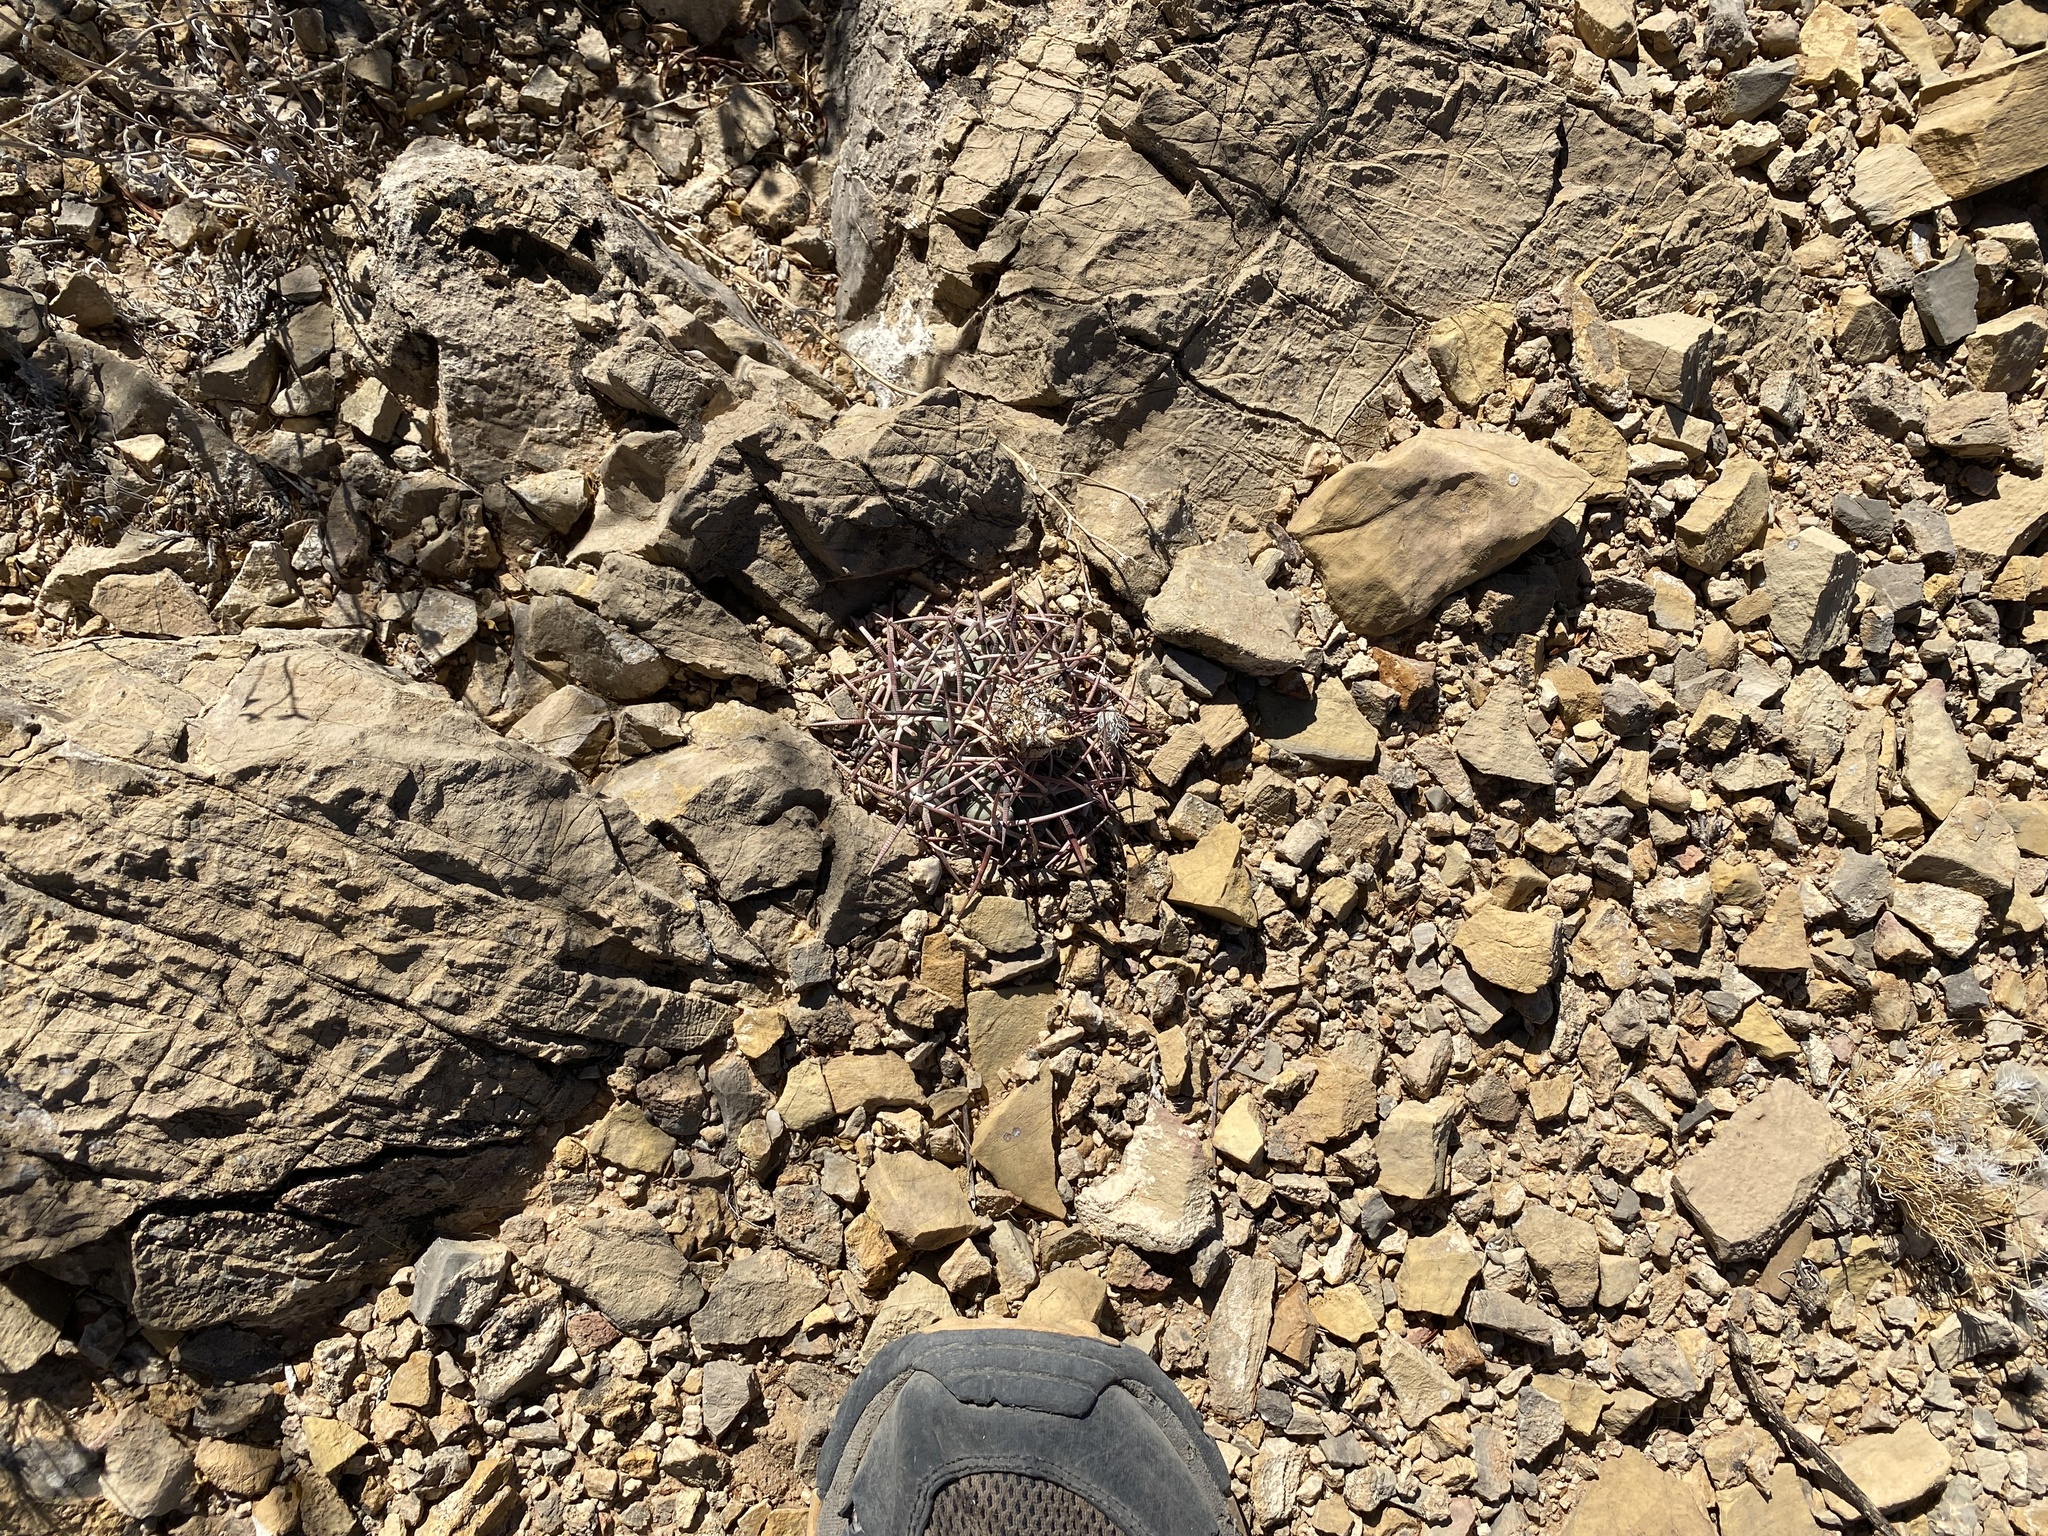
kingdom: Plantae
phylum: Tracheophyta
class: Magnoliopsida
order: Caryophyllales
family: Cactaceae
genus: Echinocactus
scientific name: Echinocactus horizonthalonius
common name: Devilshead
